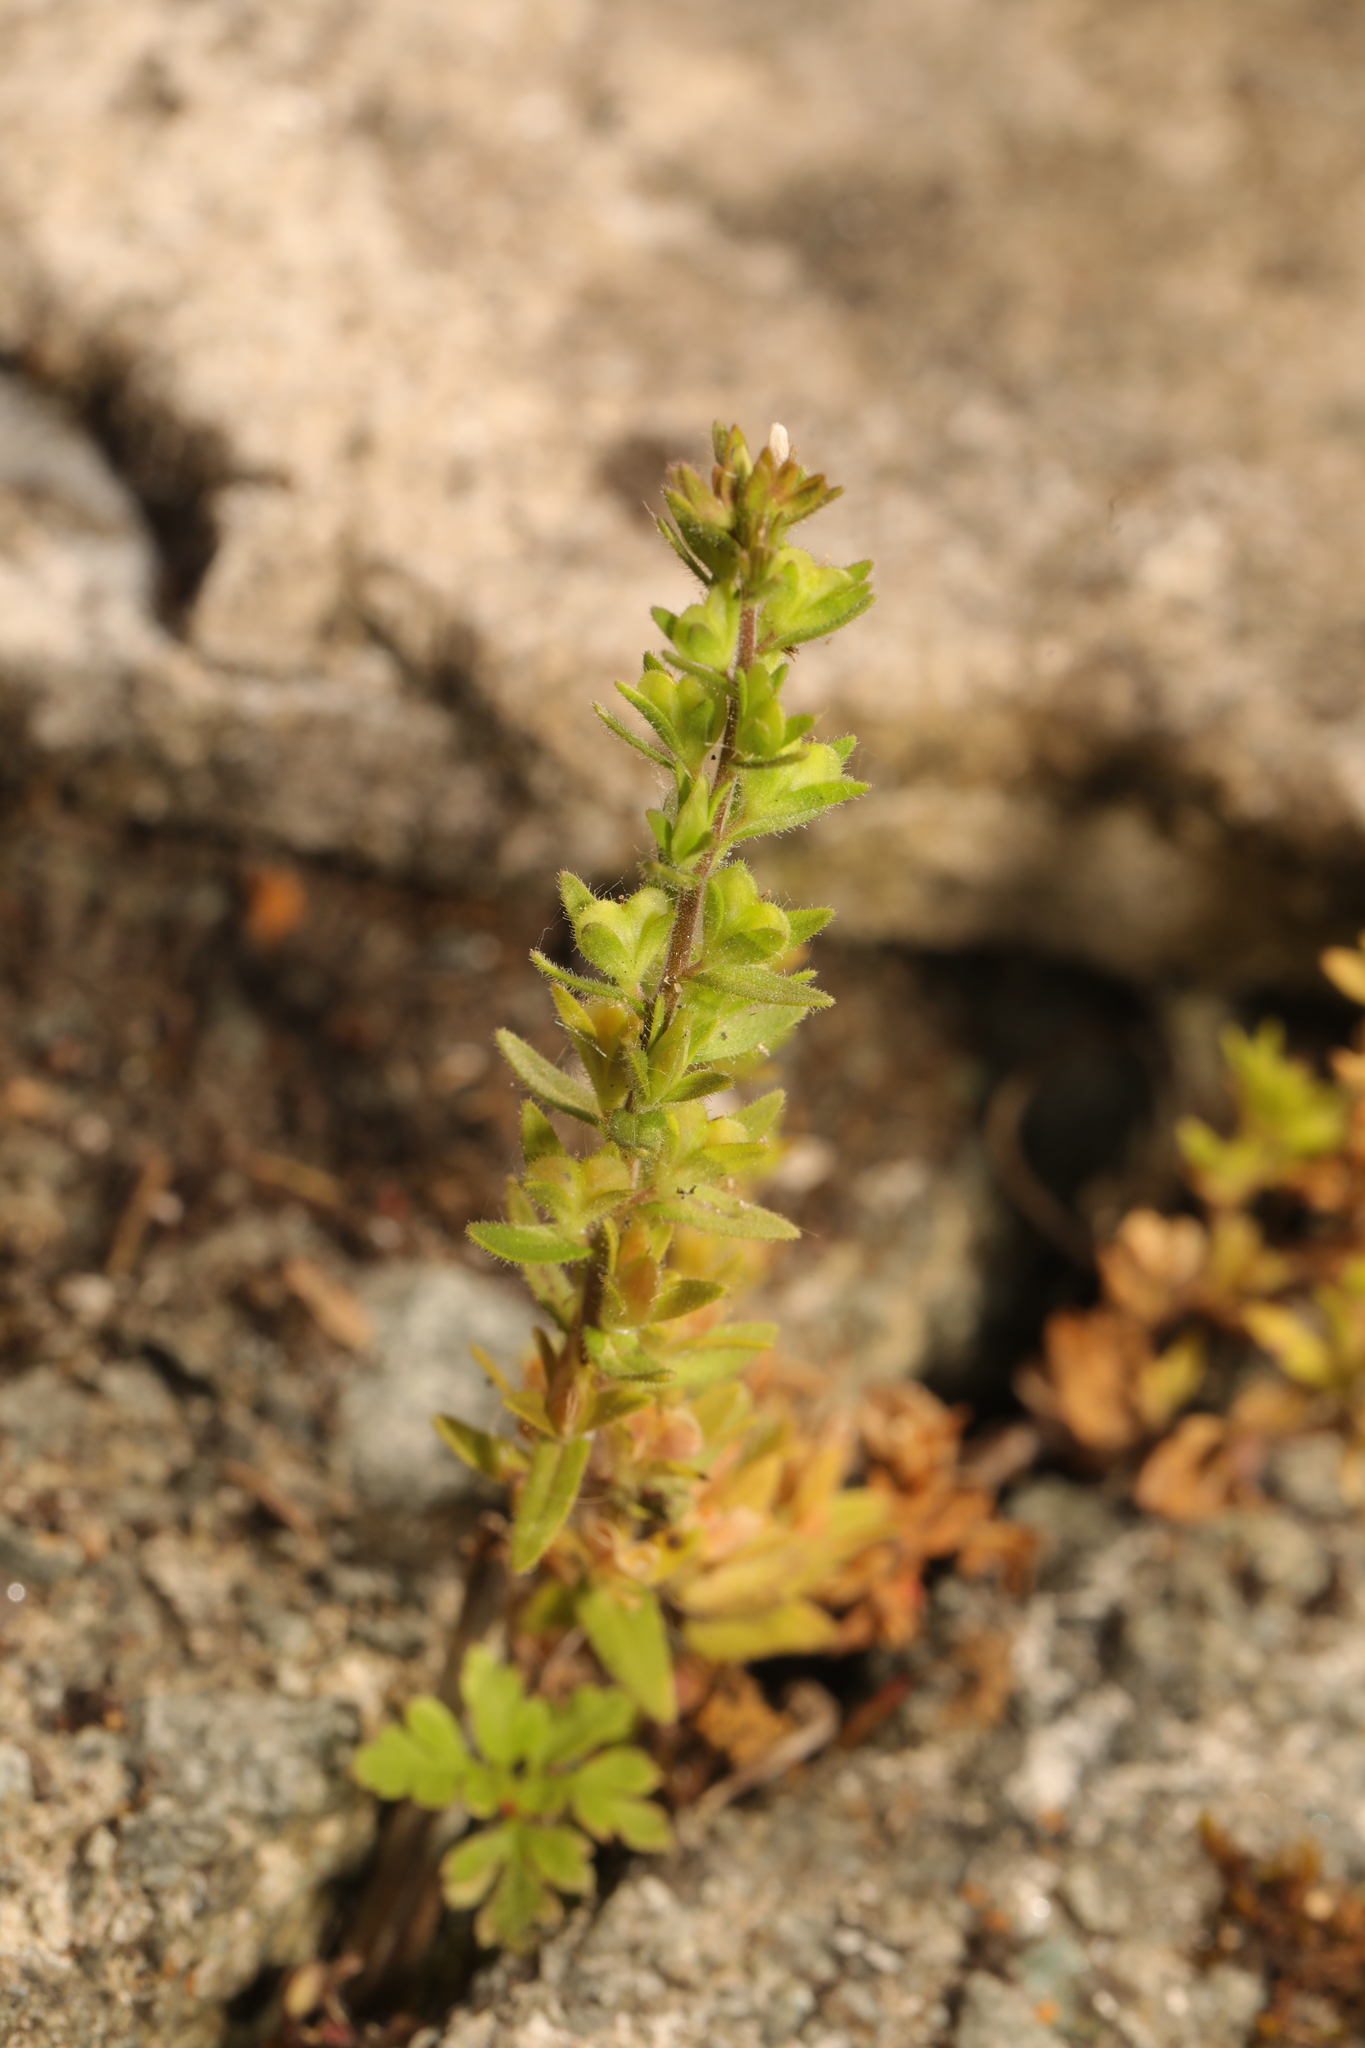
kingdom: Plantae
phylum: Tracheophyta
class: Magnoliopsida
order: Lamiales
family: Plantaginaceae
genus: Veronica
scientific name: Veronica arvensis
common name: Corn speedwell
